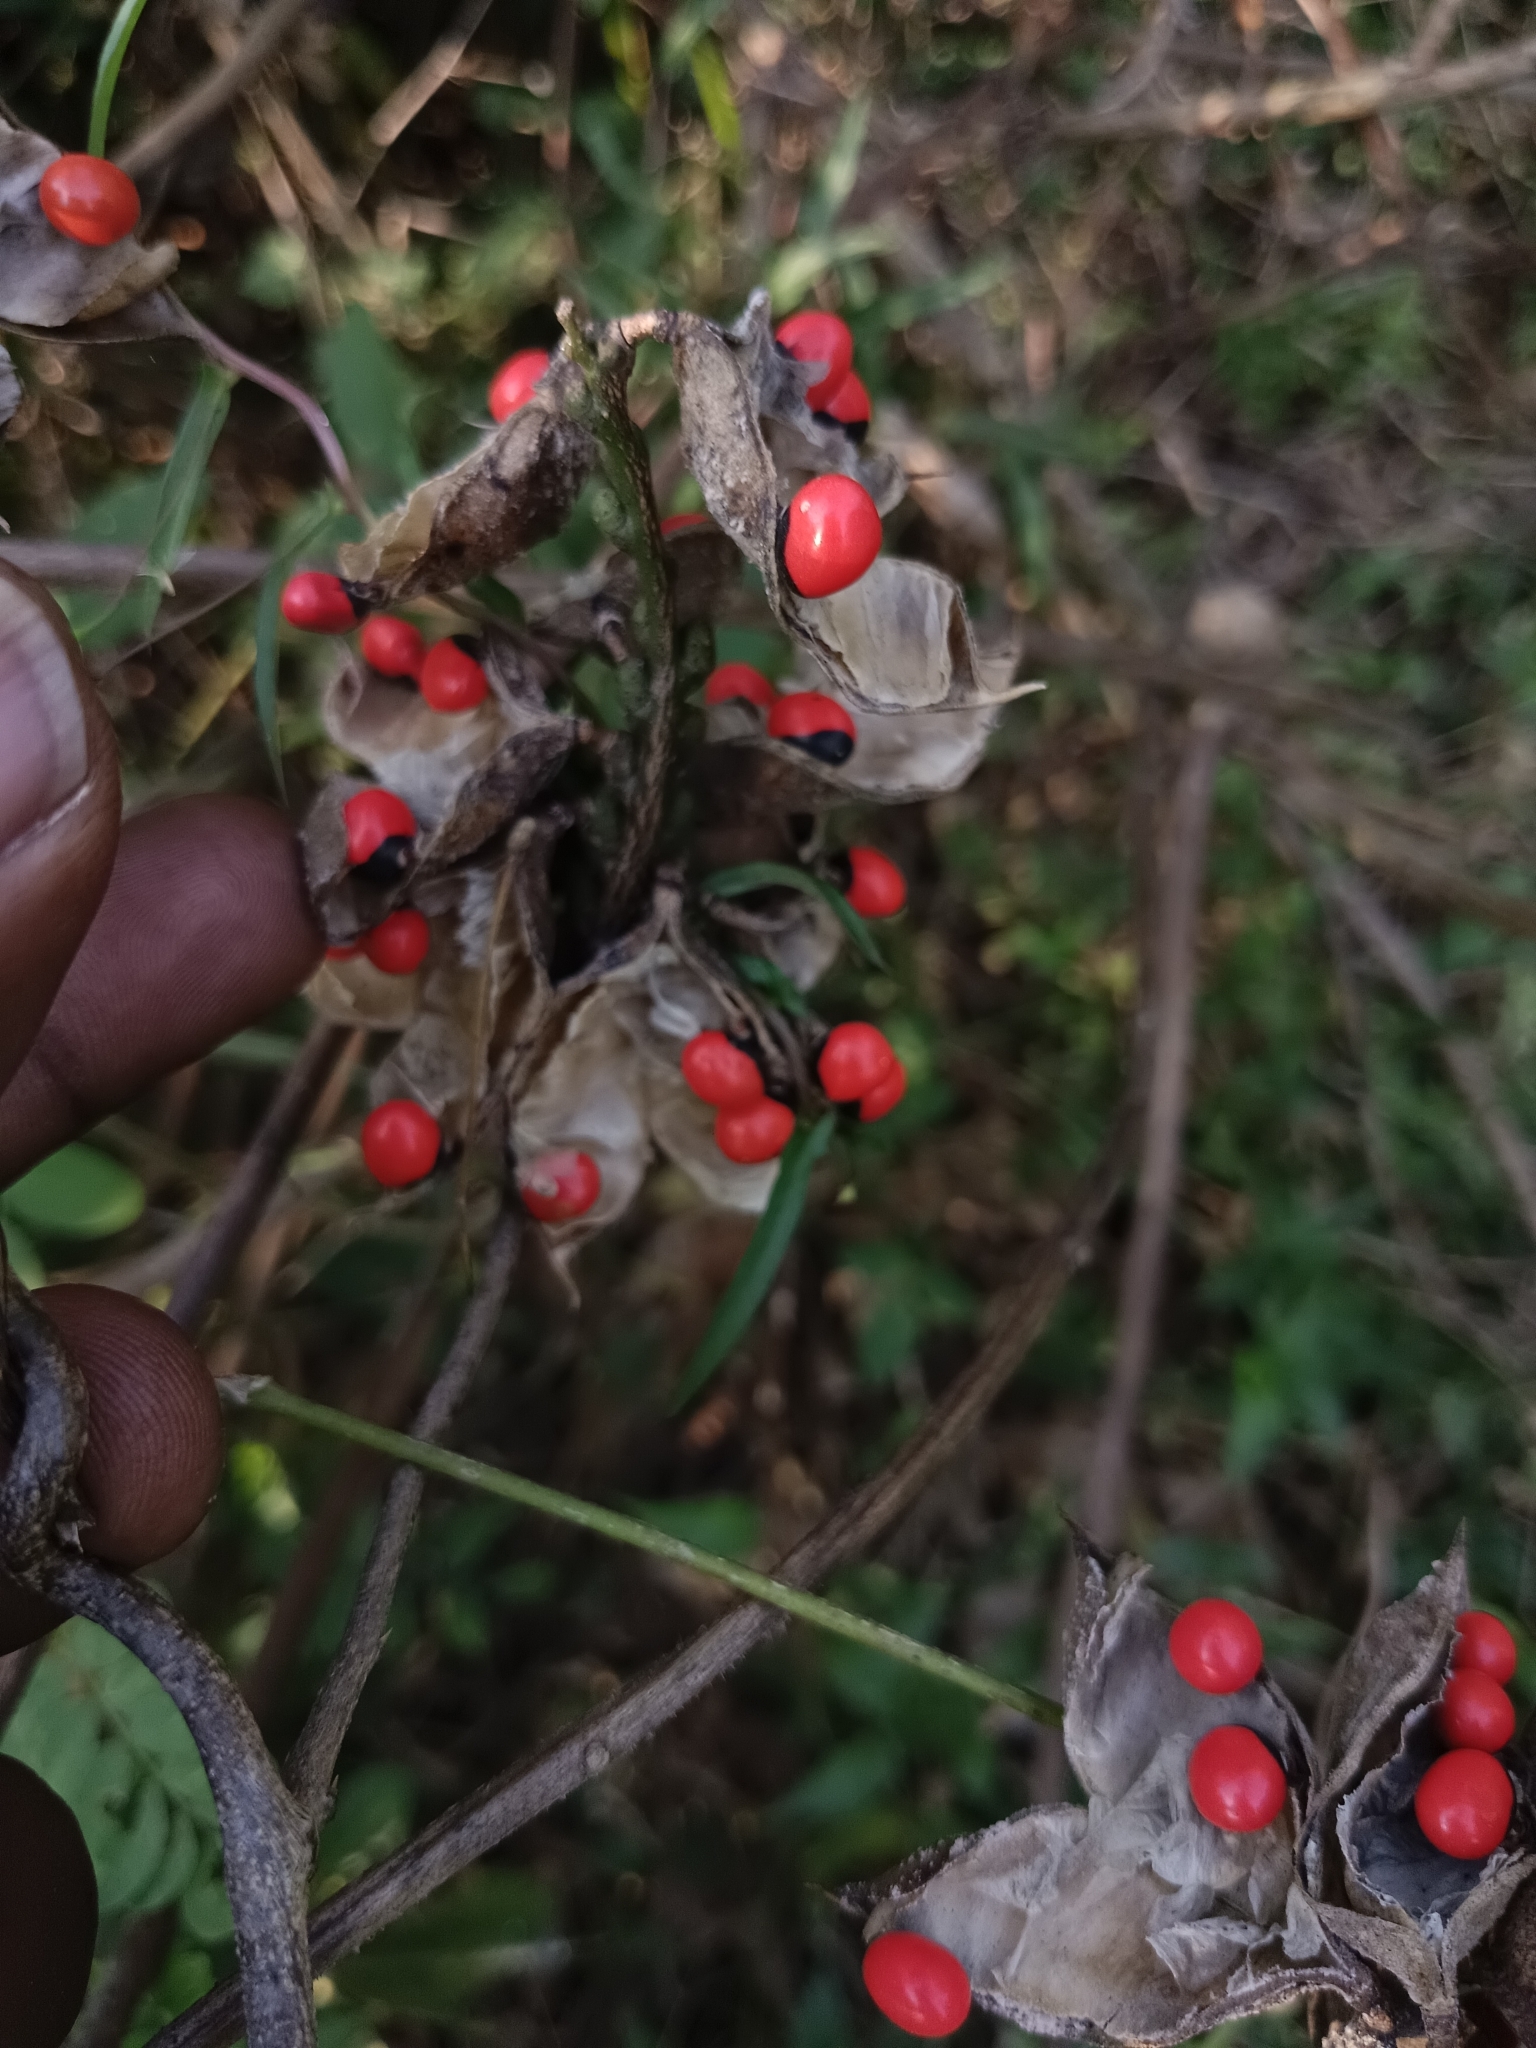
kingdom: Plantae
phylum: Tracheophyta
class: Magnoliopsida
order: Fabales
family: Fabaceae
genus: Abrus
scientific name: Abrus precatorius
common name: Rosarypea
